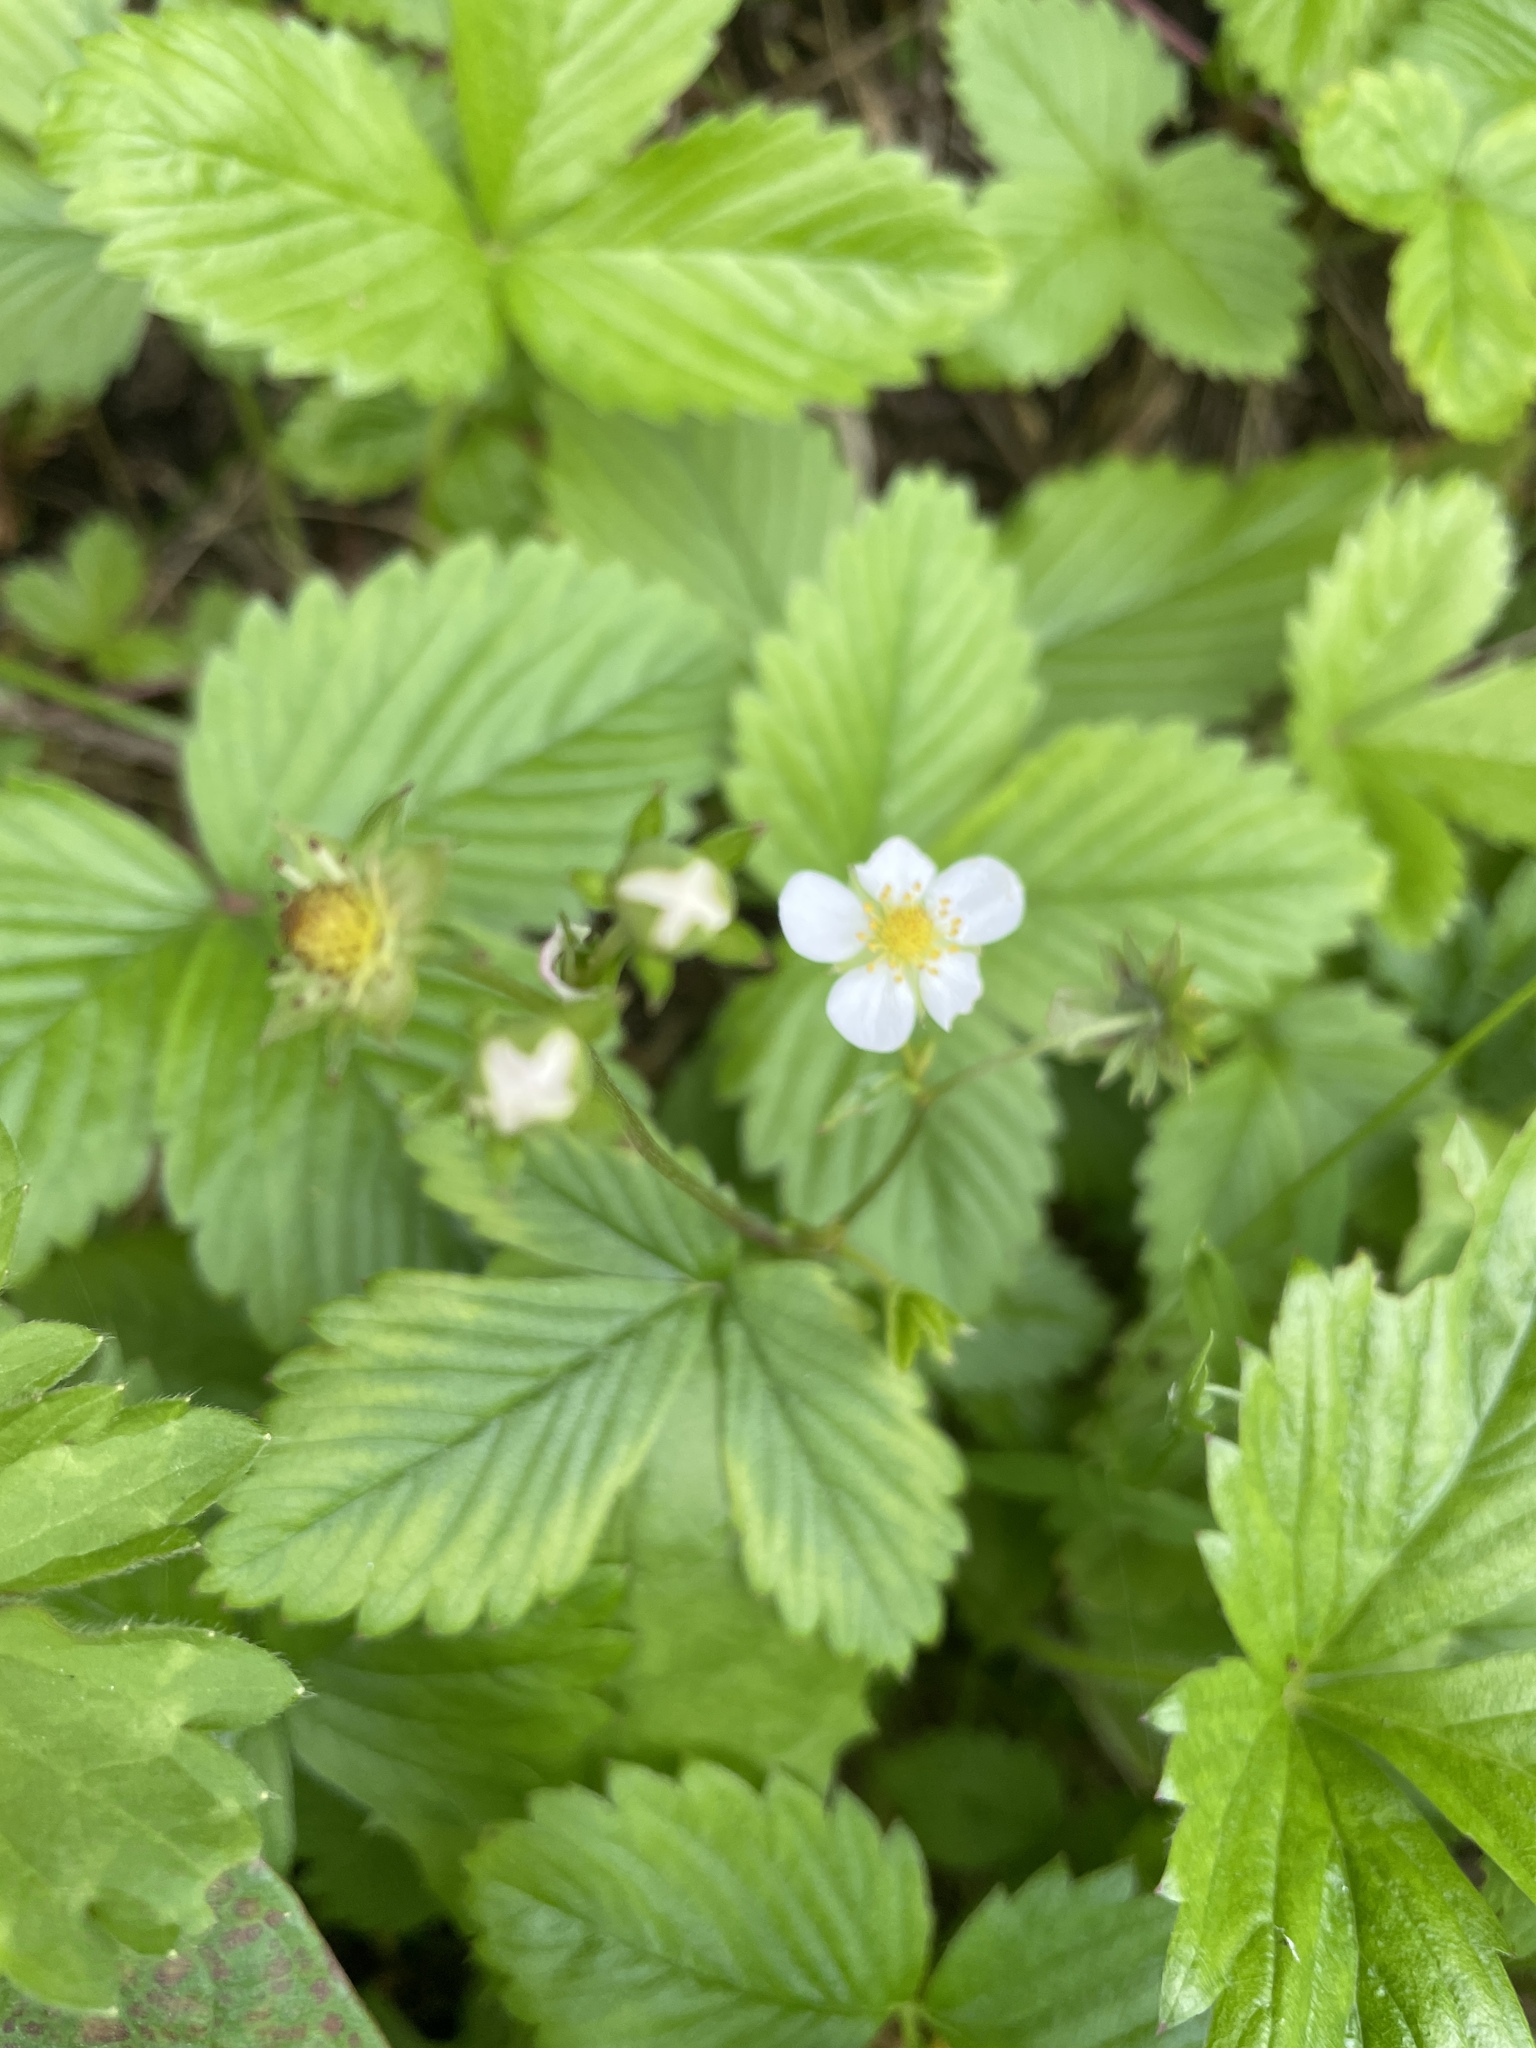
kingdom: Plantae
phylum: Tracheophyta
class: Magnoliopsida
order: Rosales
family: Rosaceae
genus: Fragaria
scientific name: Fragaria vesca
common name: Wild strawberry
